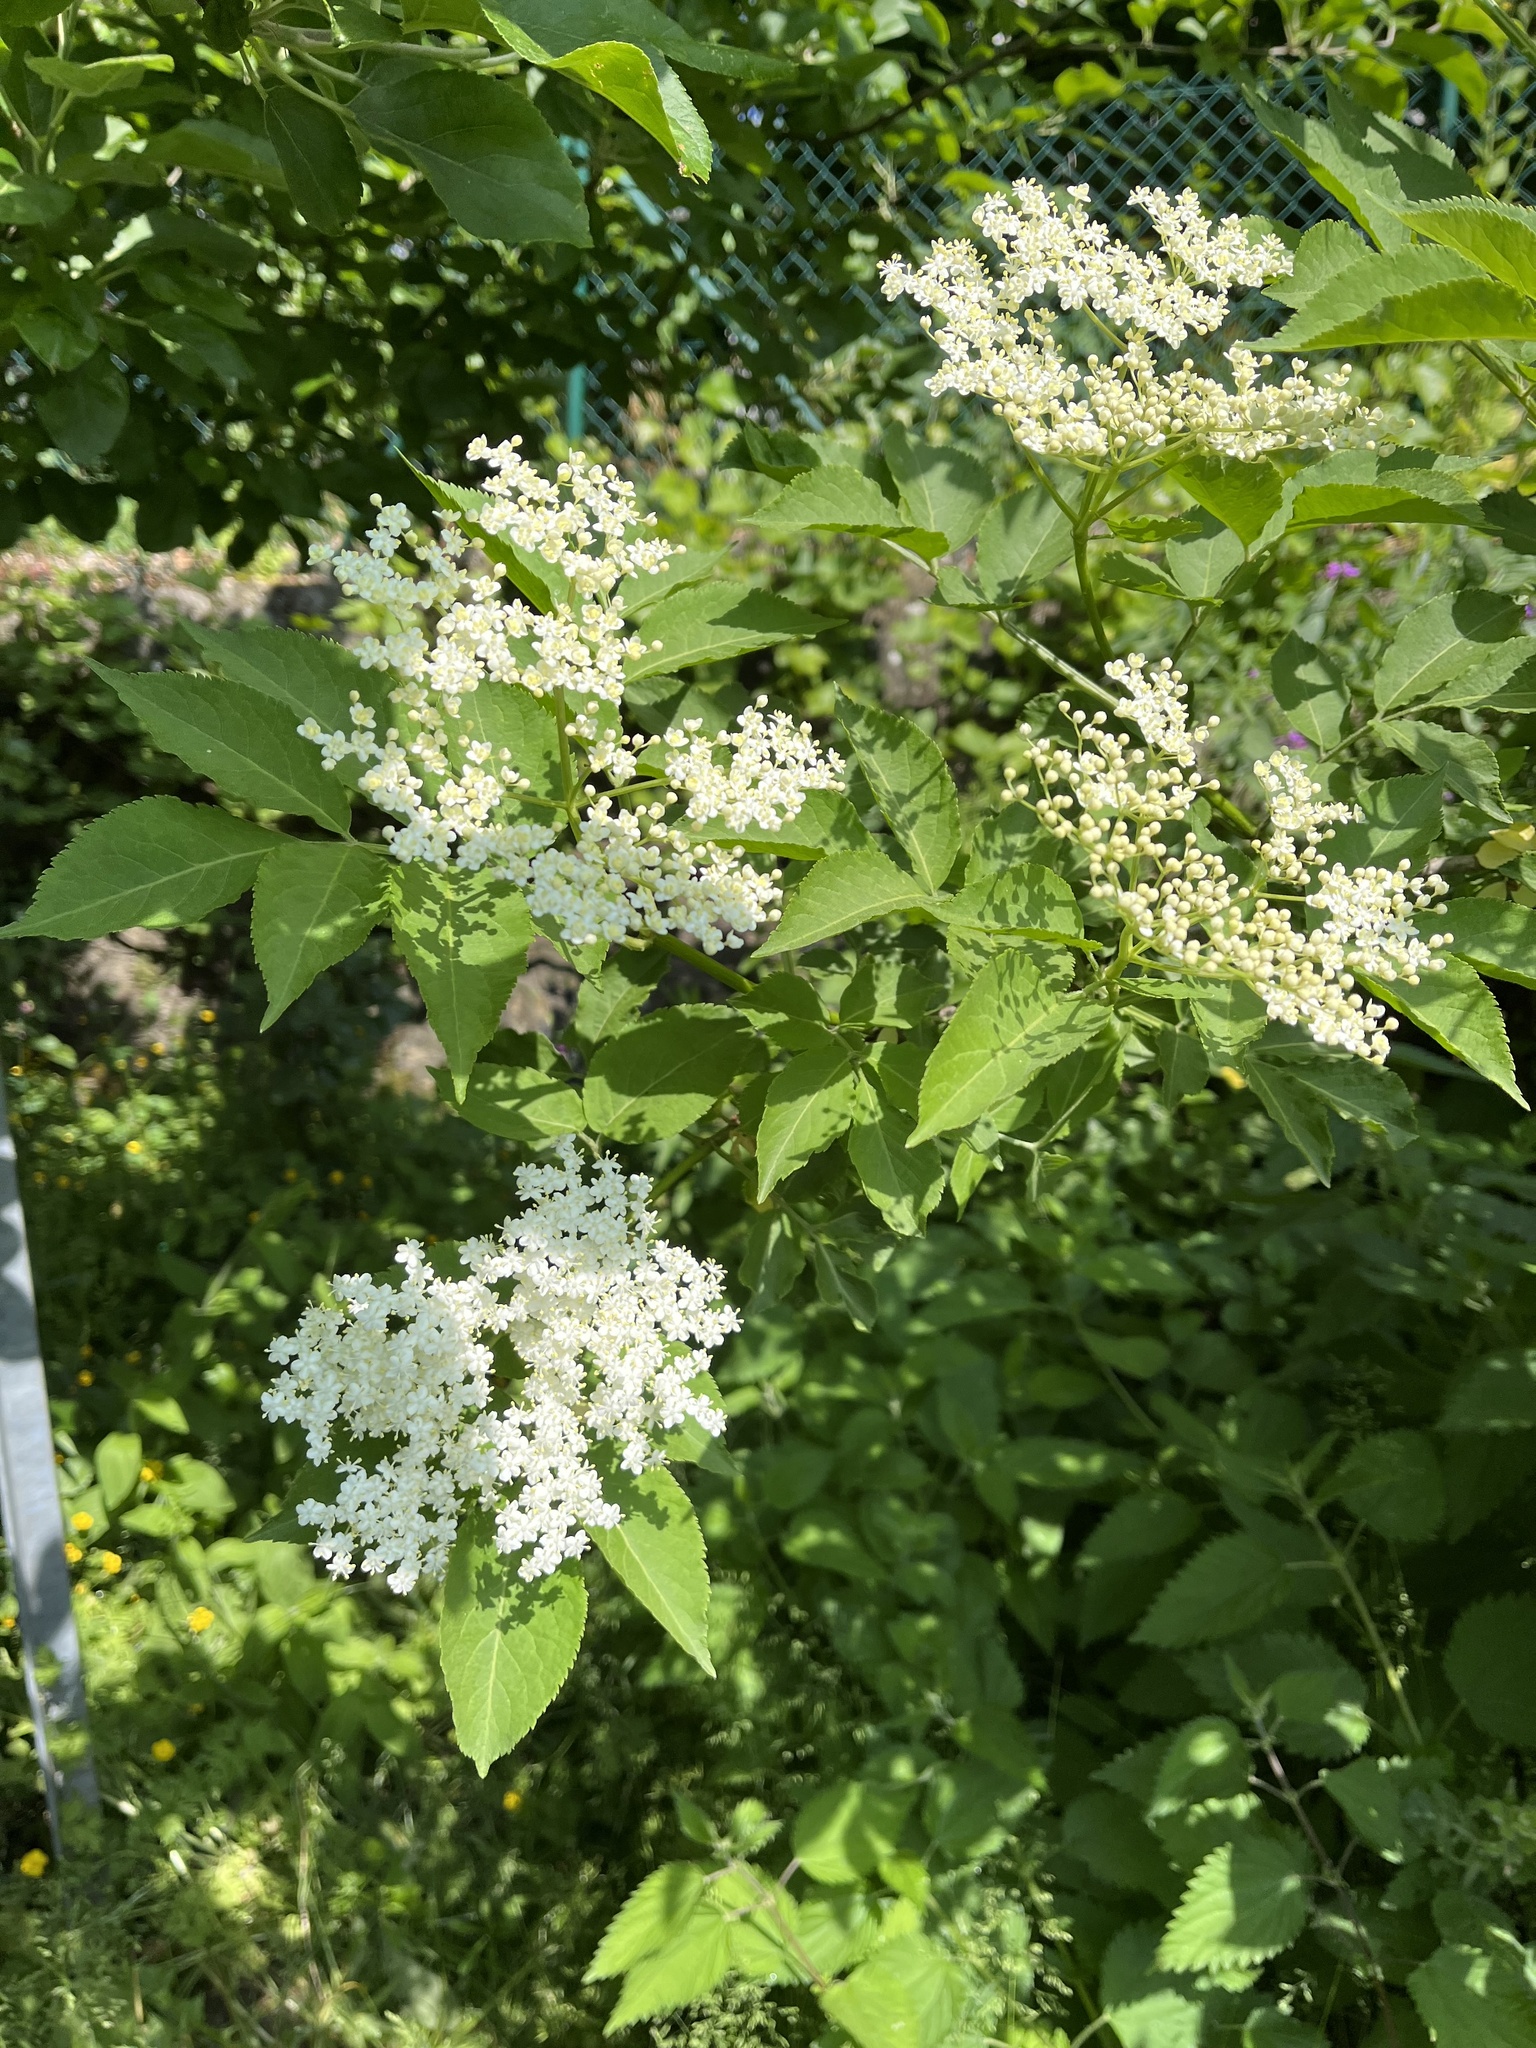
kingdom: Plantae
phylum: Tracheophyta
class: Magnoliopsida
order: Dipsacales
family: Viburnaceae
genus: Sambucus
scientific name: Sambucus nigra
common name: Elder
